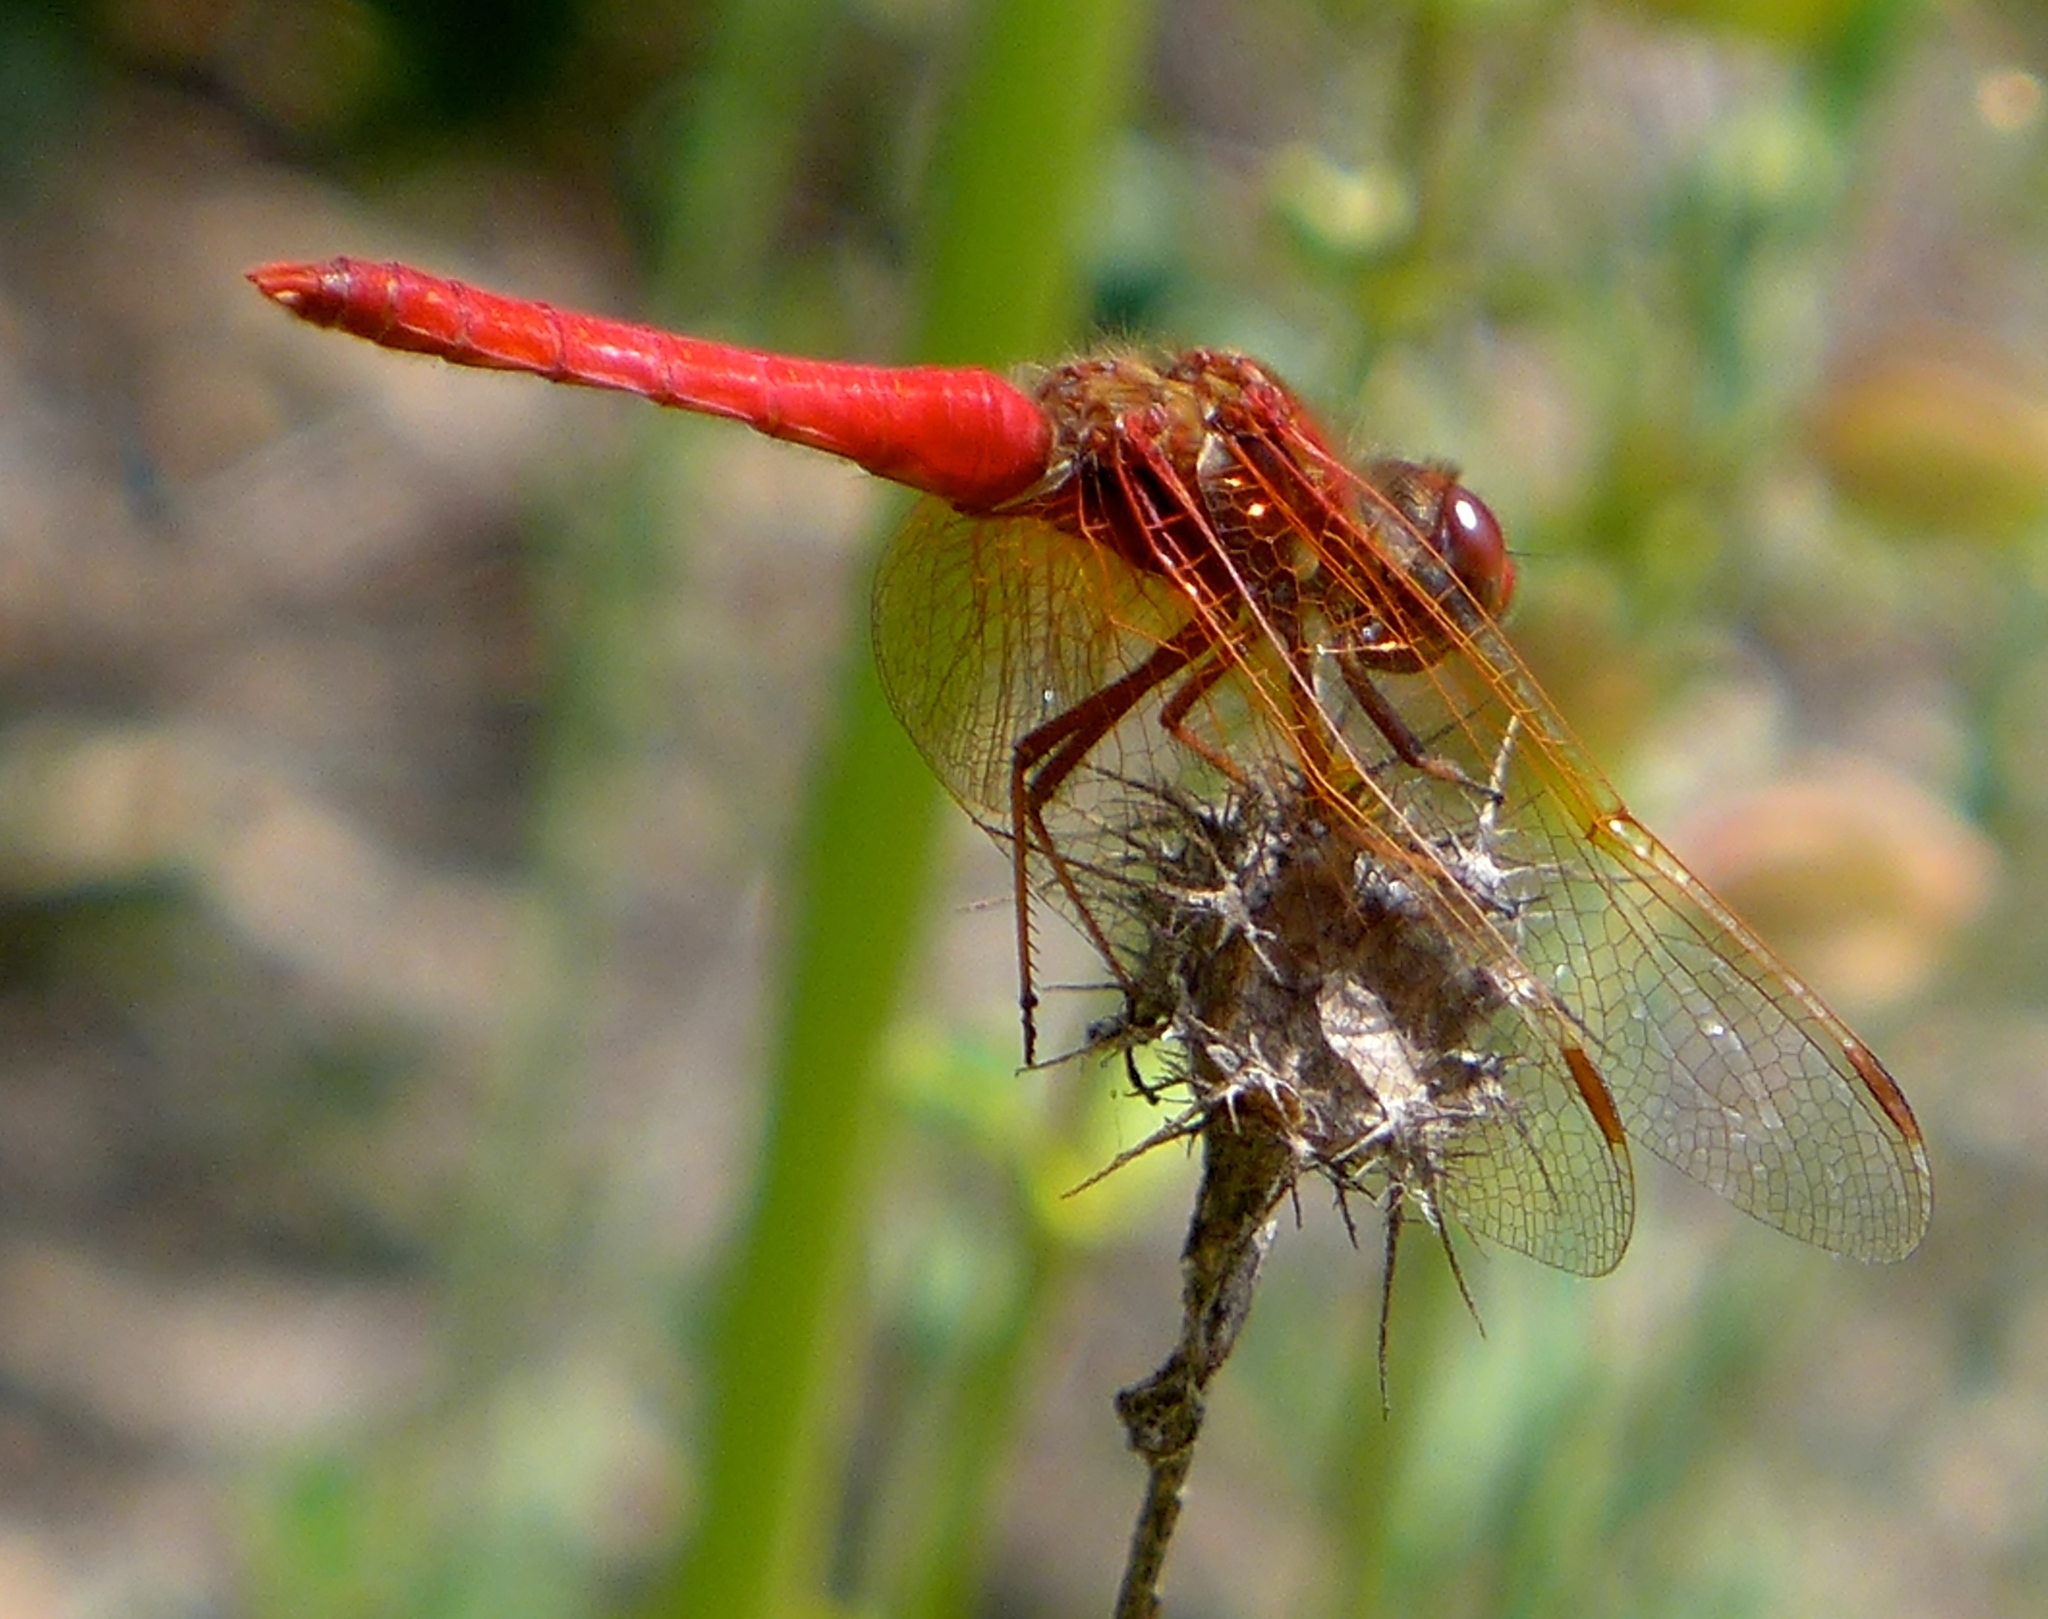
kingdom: Animalia
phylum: Arthropoda
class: Insecta
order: Odonata
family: Libellulidae
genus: Sympetrum
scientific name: Sympetrum illotum
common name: Cardinal meadowhawk
